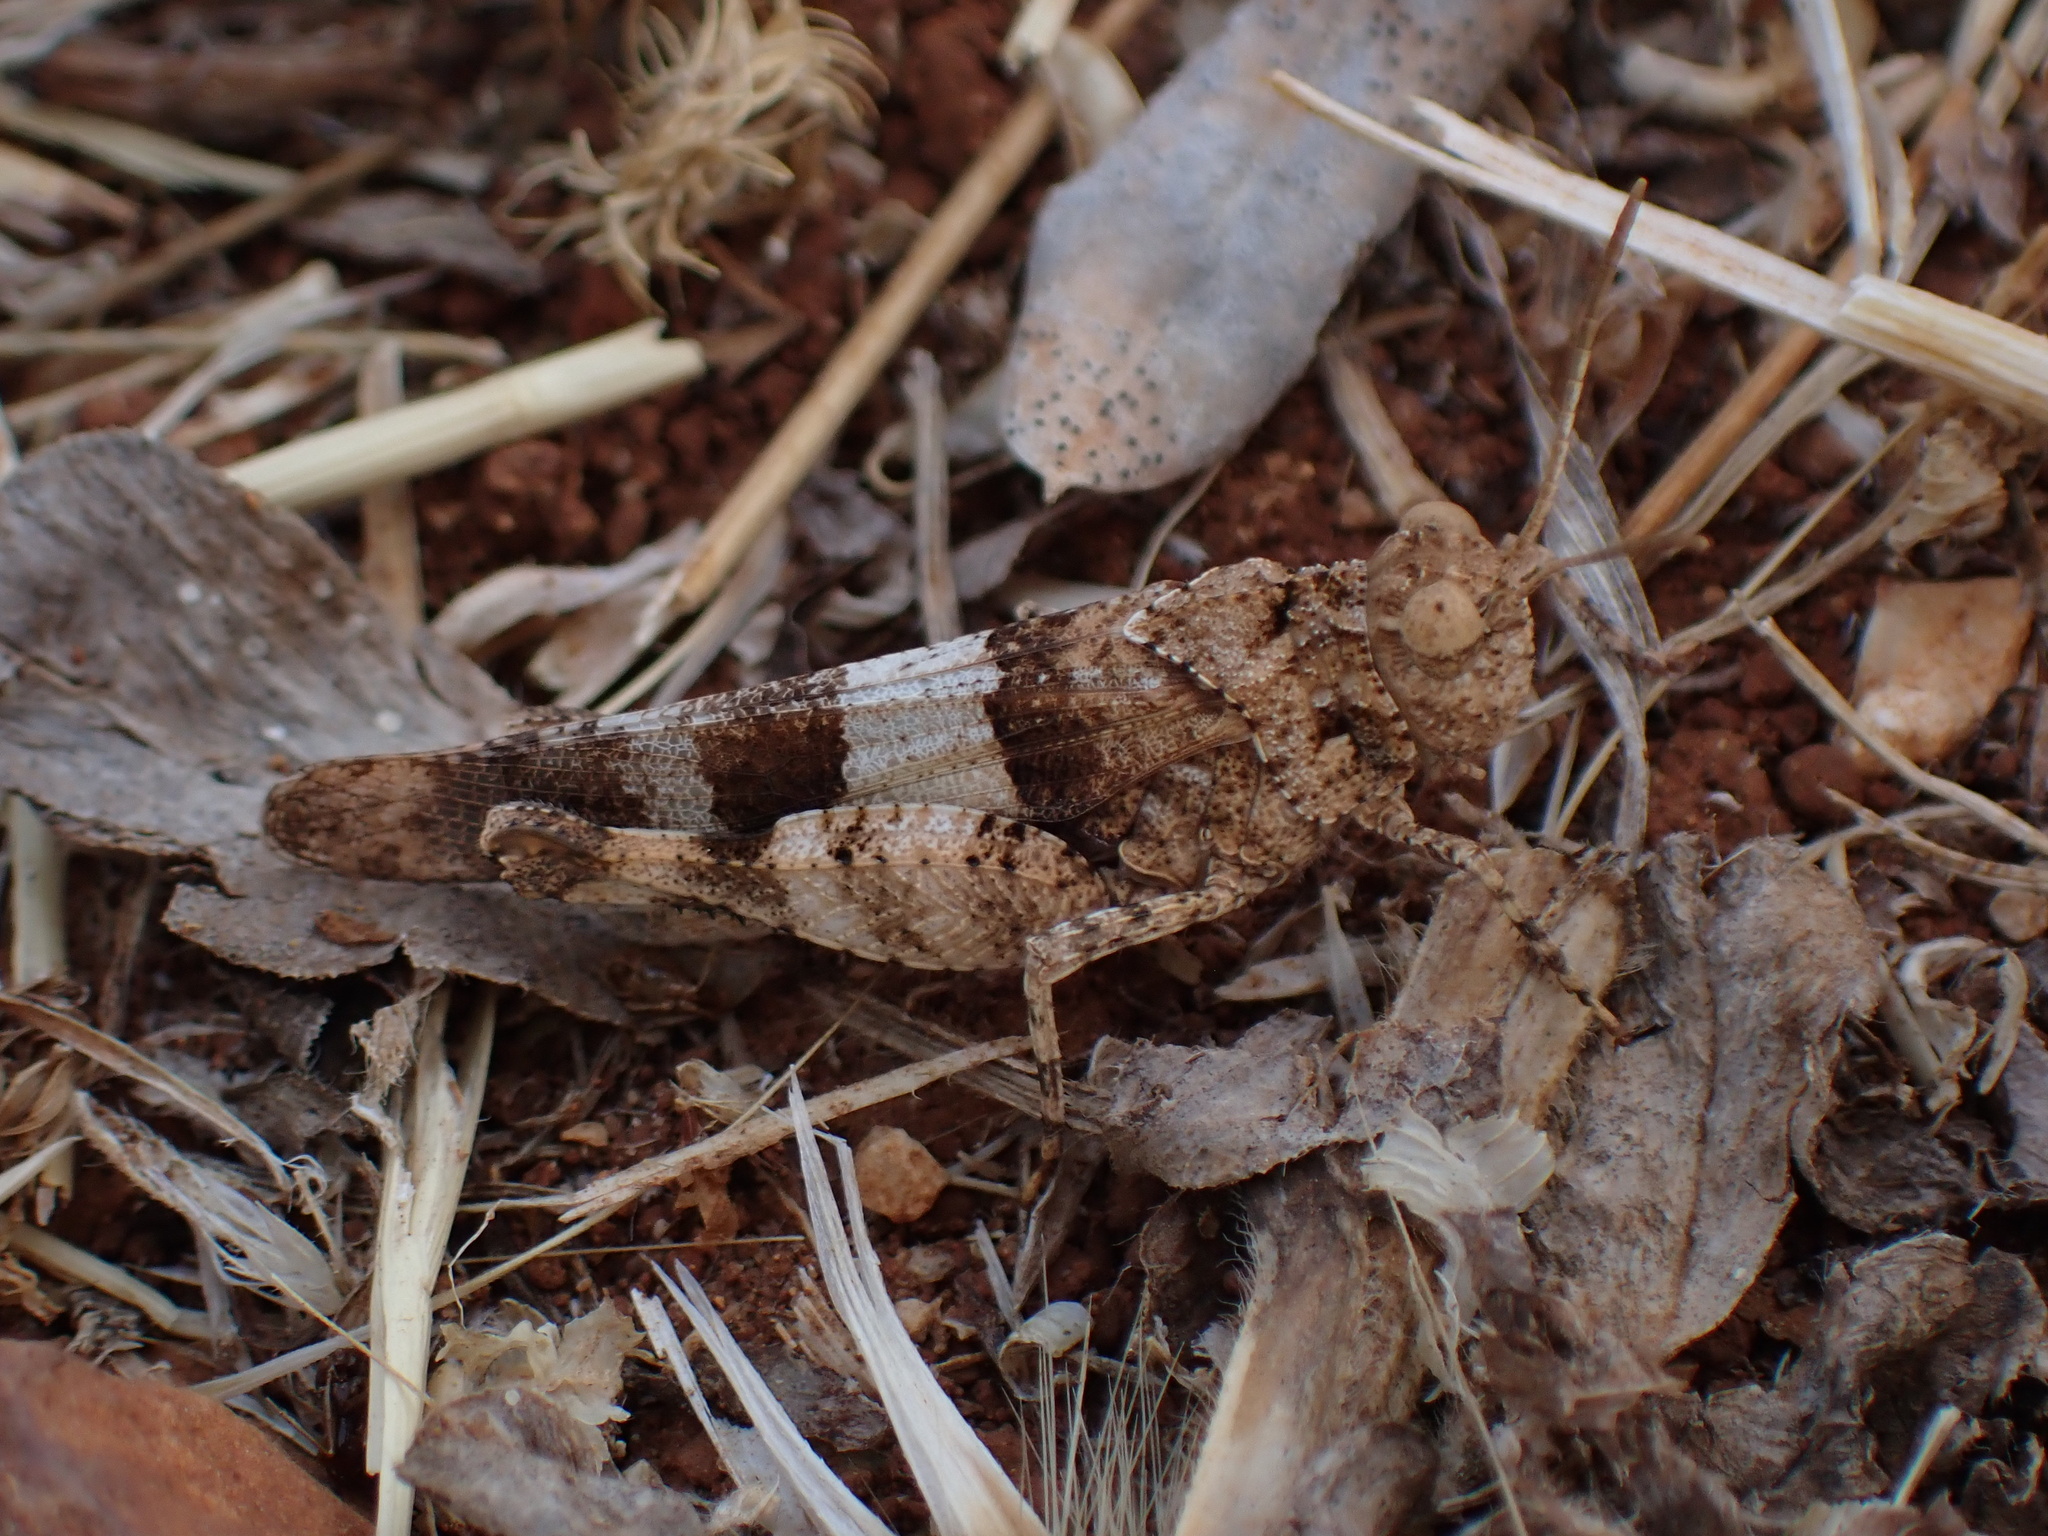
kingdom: Animalia
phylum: Arthropoda
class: Insecta
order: Orthoptera
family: Acrididae
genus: Oedipoda
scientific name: Oedipoda caerulescens
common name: Blue-winged grasshopper
